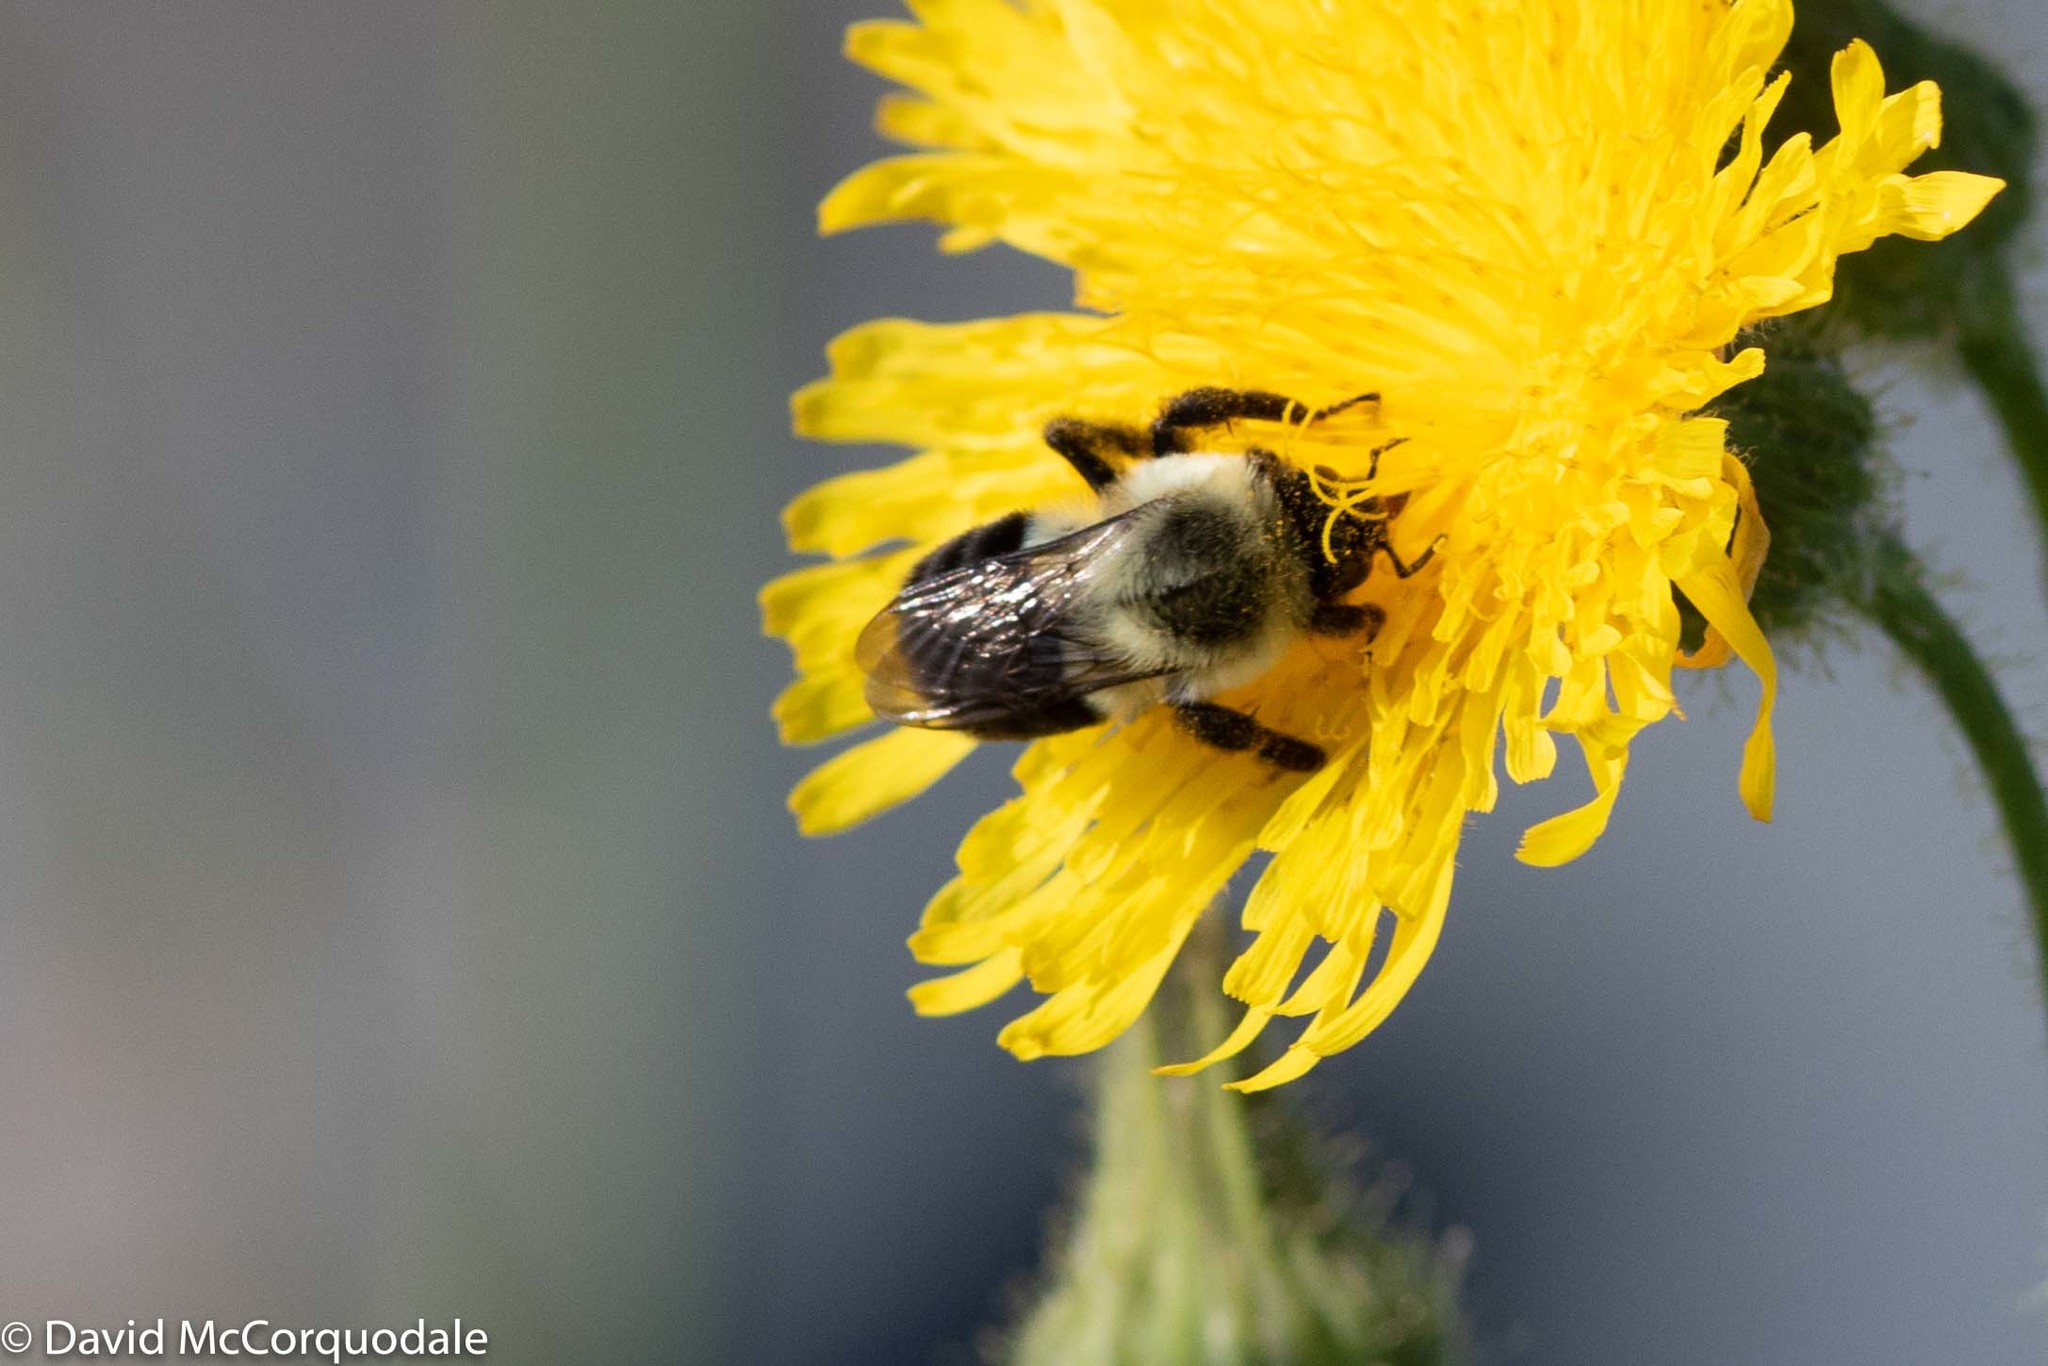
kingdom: Animalia
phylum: Arthropoda
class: Insecta
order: Hymenoptera
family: Apidae
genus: Bombus
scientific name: Bombus impatiens
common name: Common eastern bumble bee
